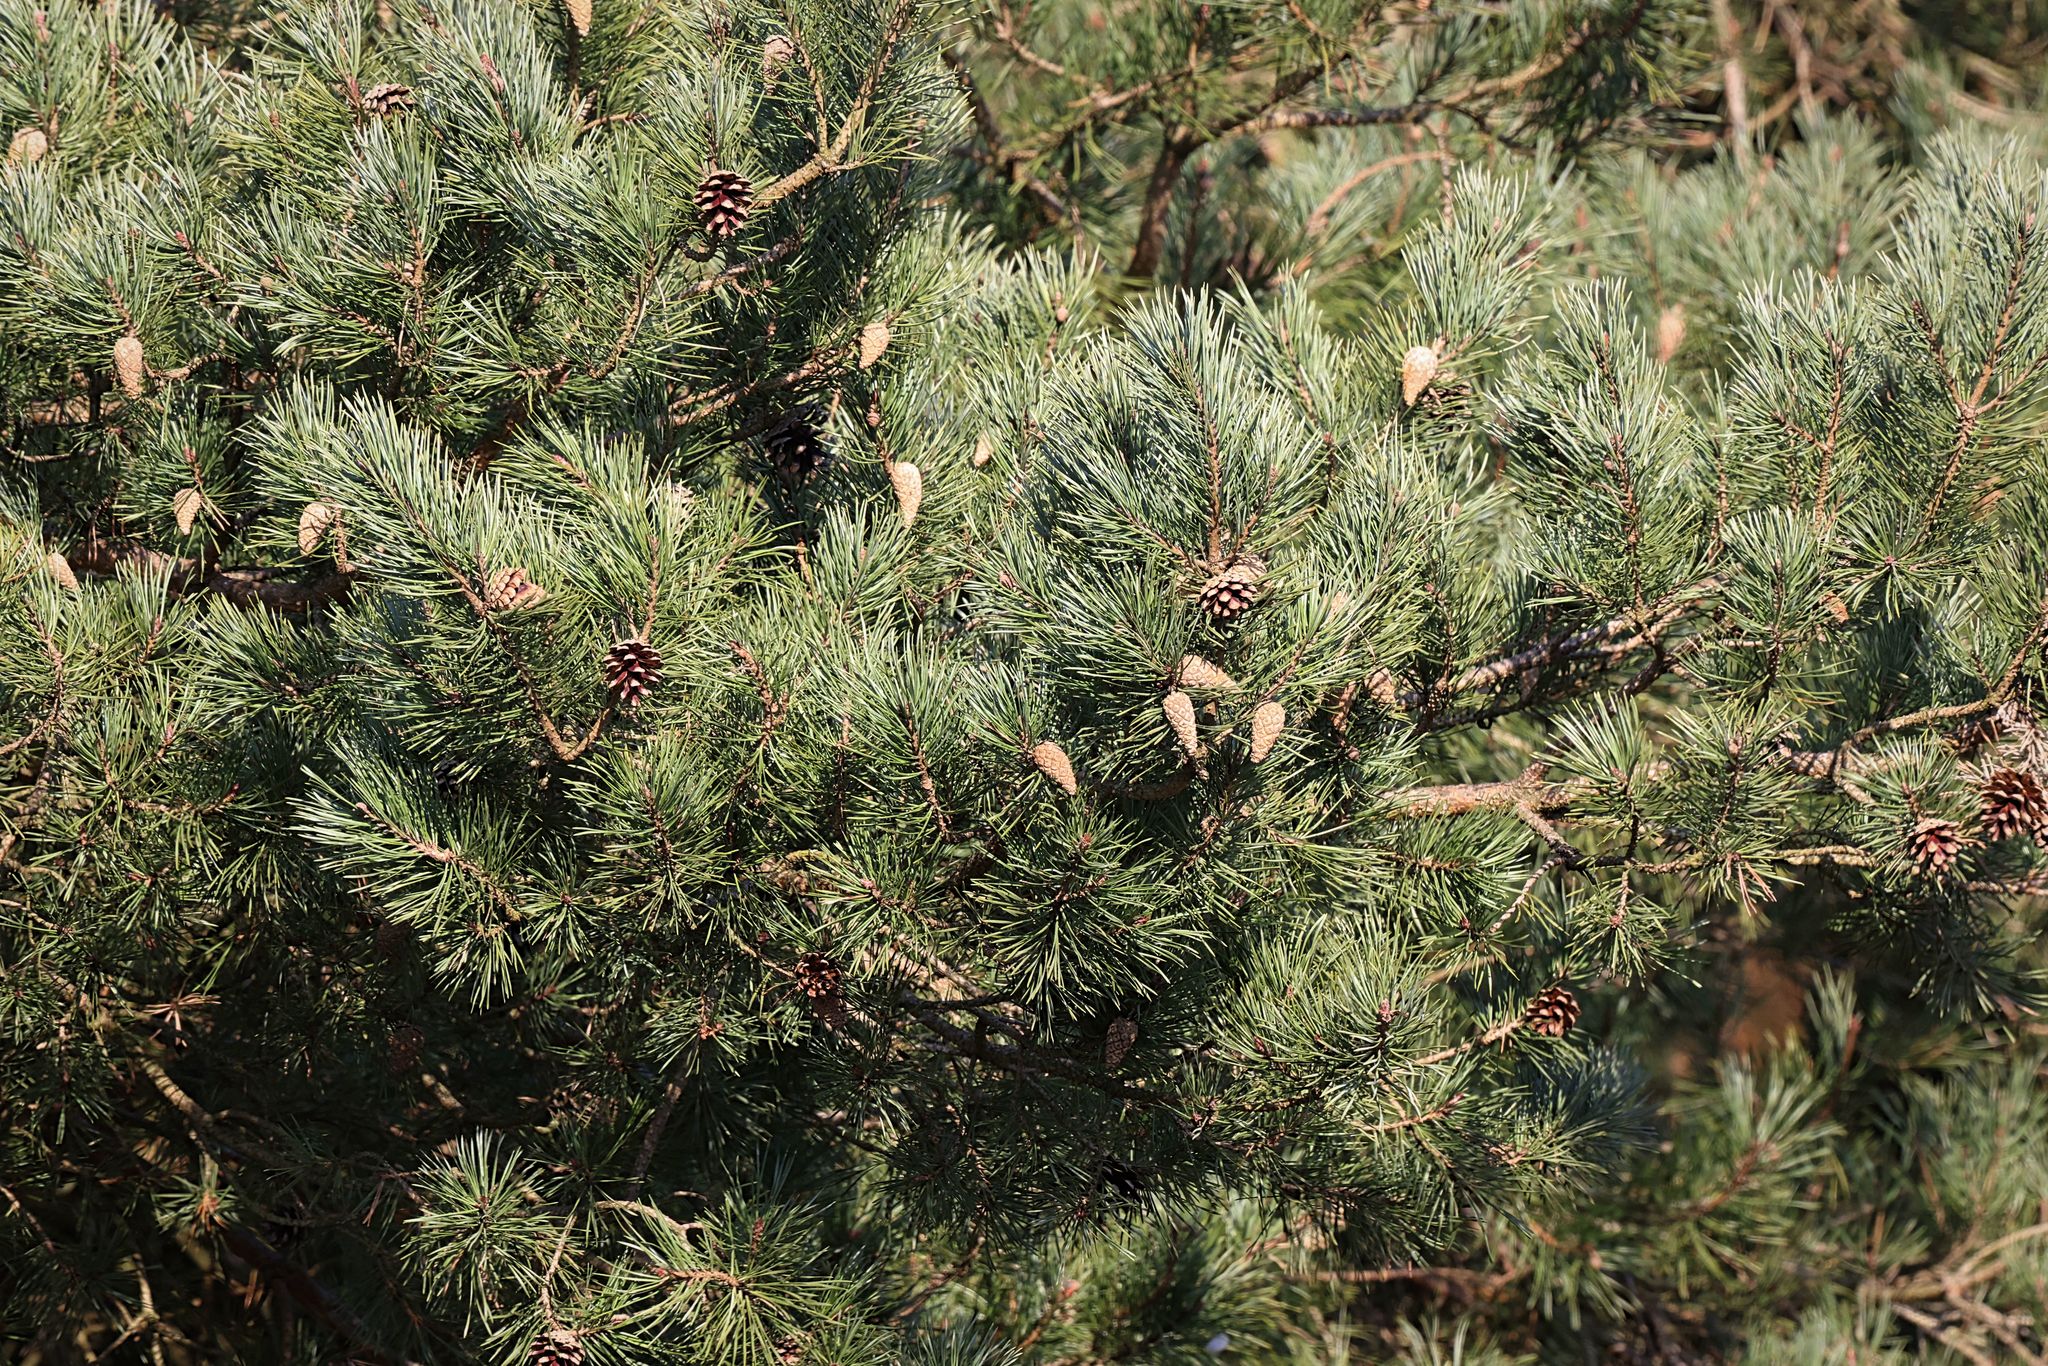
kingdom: Plantae
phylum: Tracheophyta
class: Pinopsida
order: Pinales
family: Pinaceae
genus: Pinus
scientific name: Pinus sylvestris
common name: Scots pine
